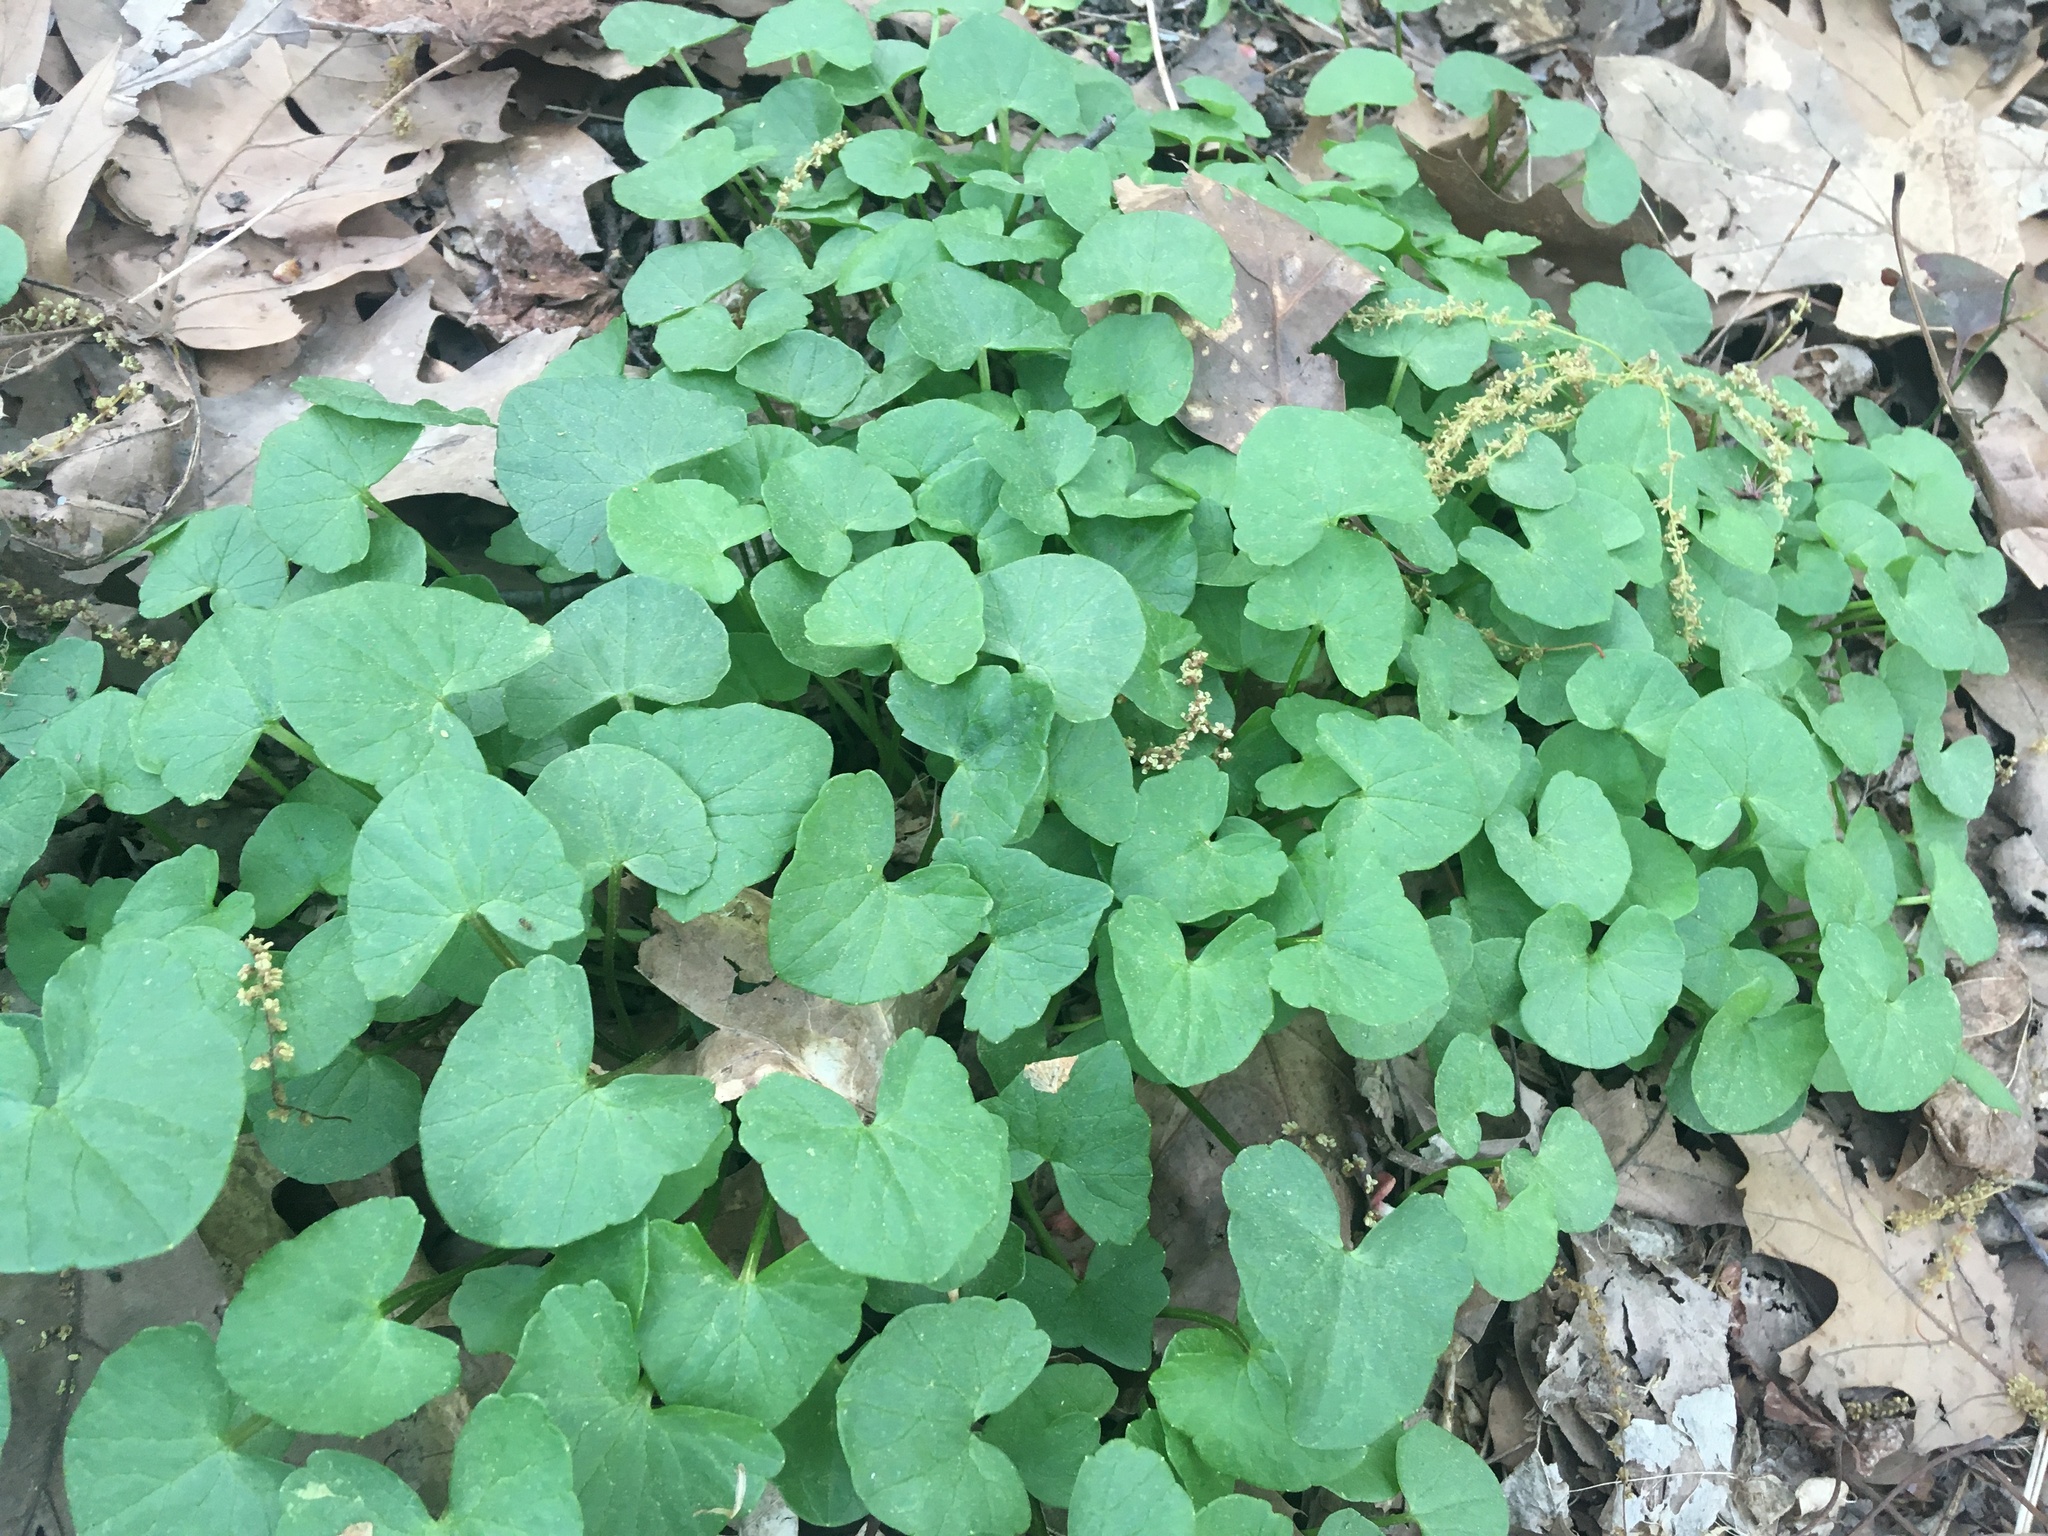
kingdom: Plantae
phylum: Tracheophyta
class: Magnoliopsida
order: Ranunculales
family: Ranunculaceae
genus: Ficaria
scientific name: Ficaria verna
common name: Lesser celandine
